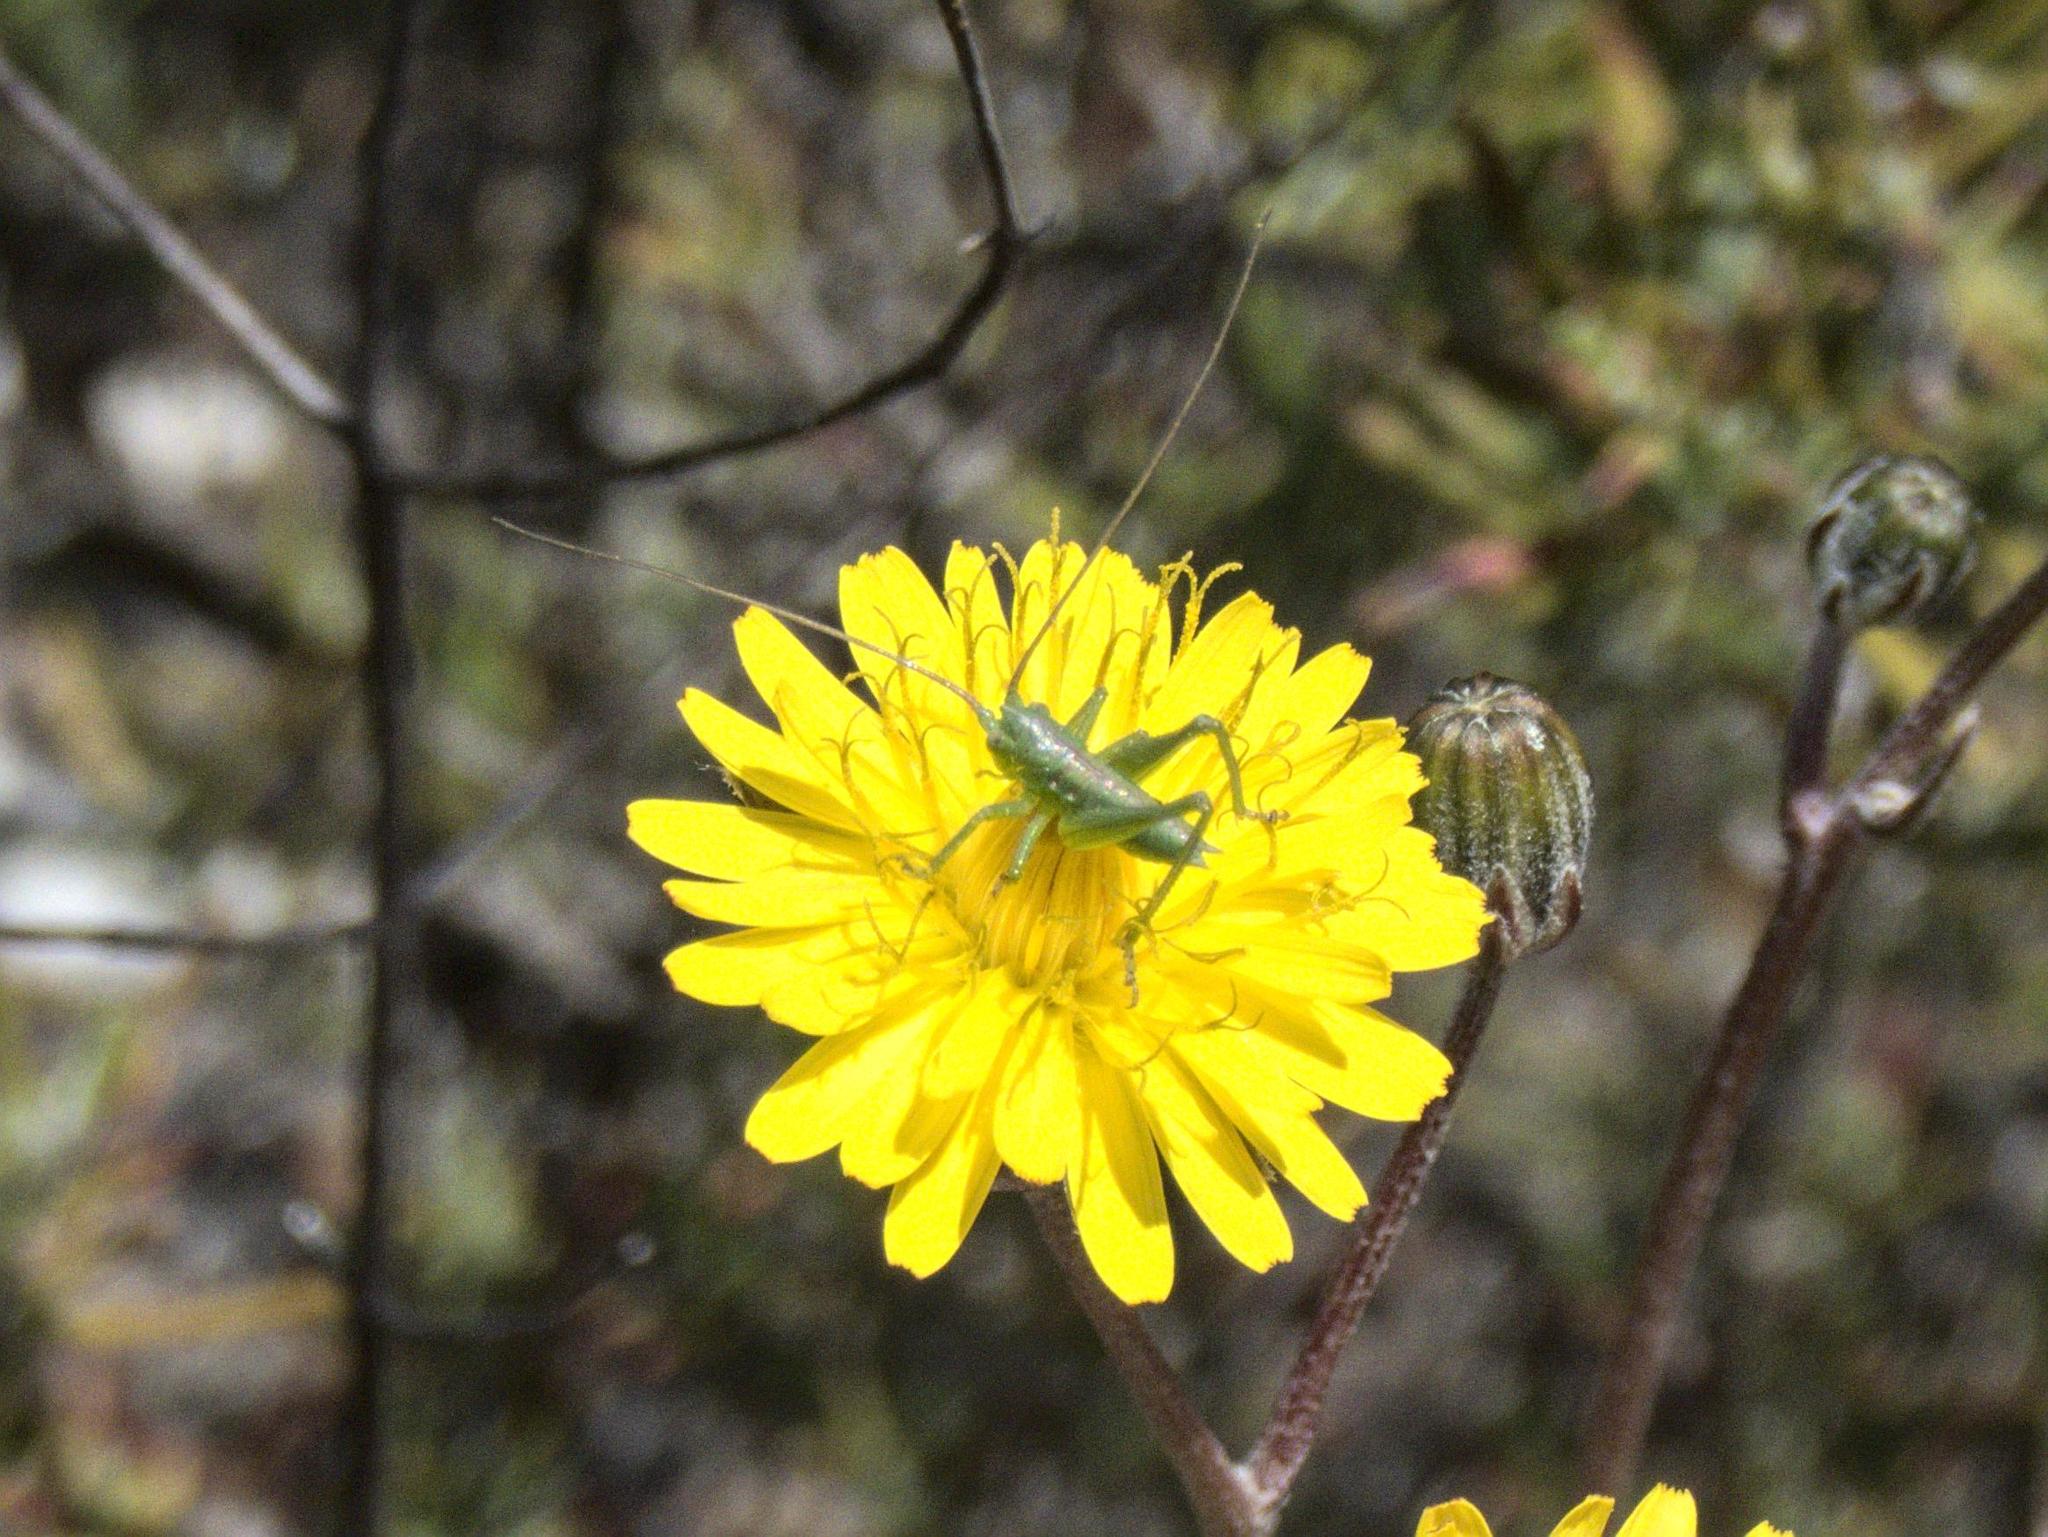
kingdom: Animalia
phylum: Arthropoda
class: Insecta
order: Orthoptera
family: Tettigoniidae
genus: Tettigonia
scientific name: Tettigonia viridissima
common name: Great green bush-cricket
